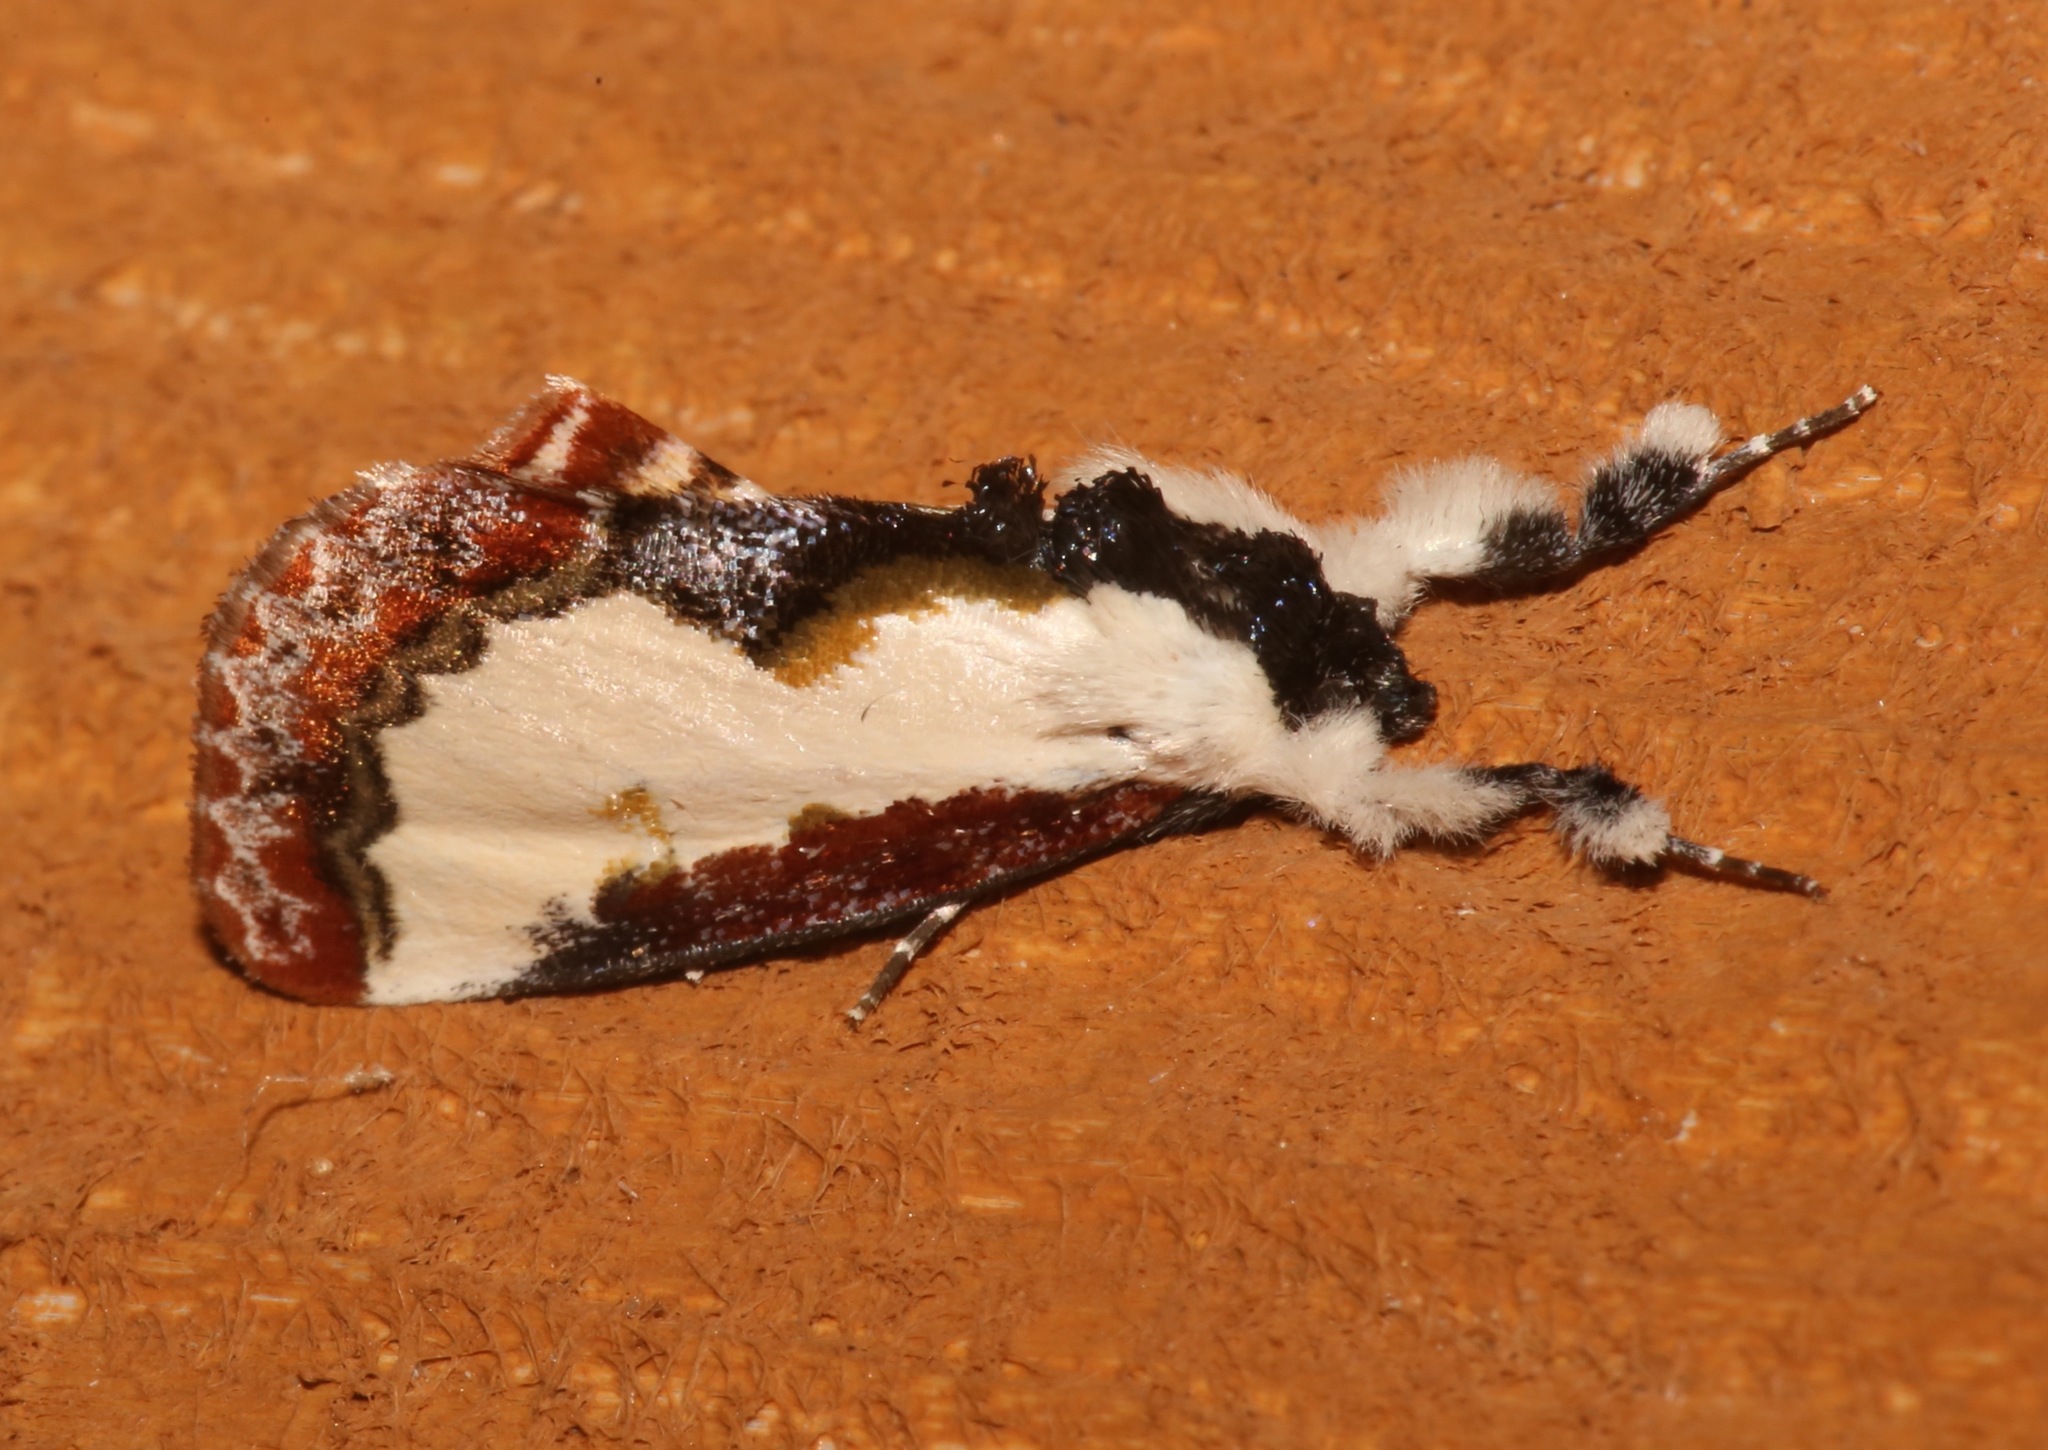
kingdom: Animalia
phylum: Arthropoda
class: Insecta
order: Lepidoptera
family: Noctuidae
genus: Eudryas
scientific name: Eudryas unio
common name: Pearly wood-nymph
